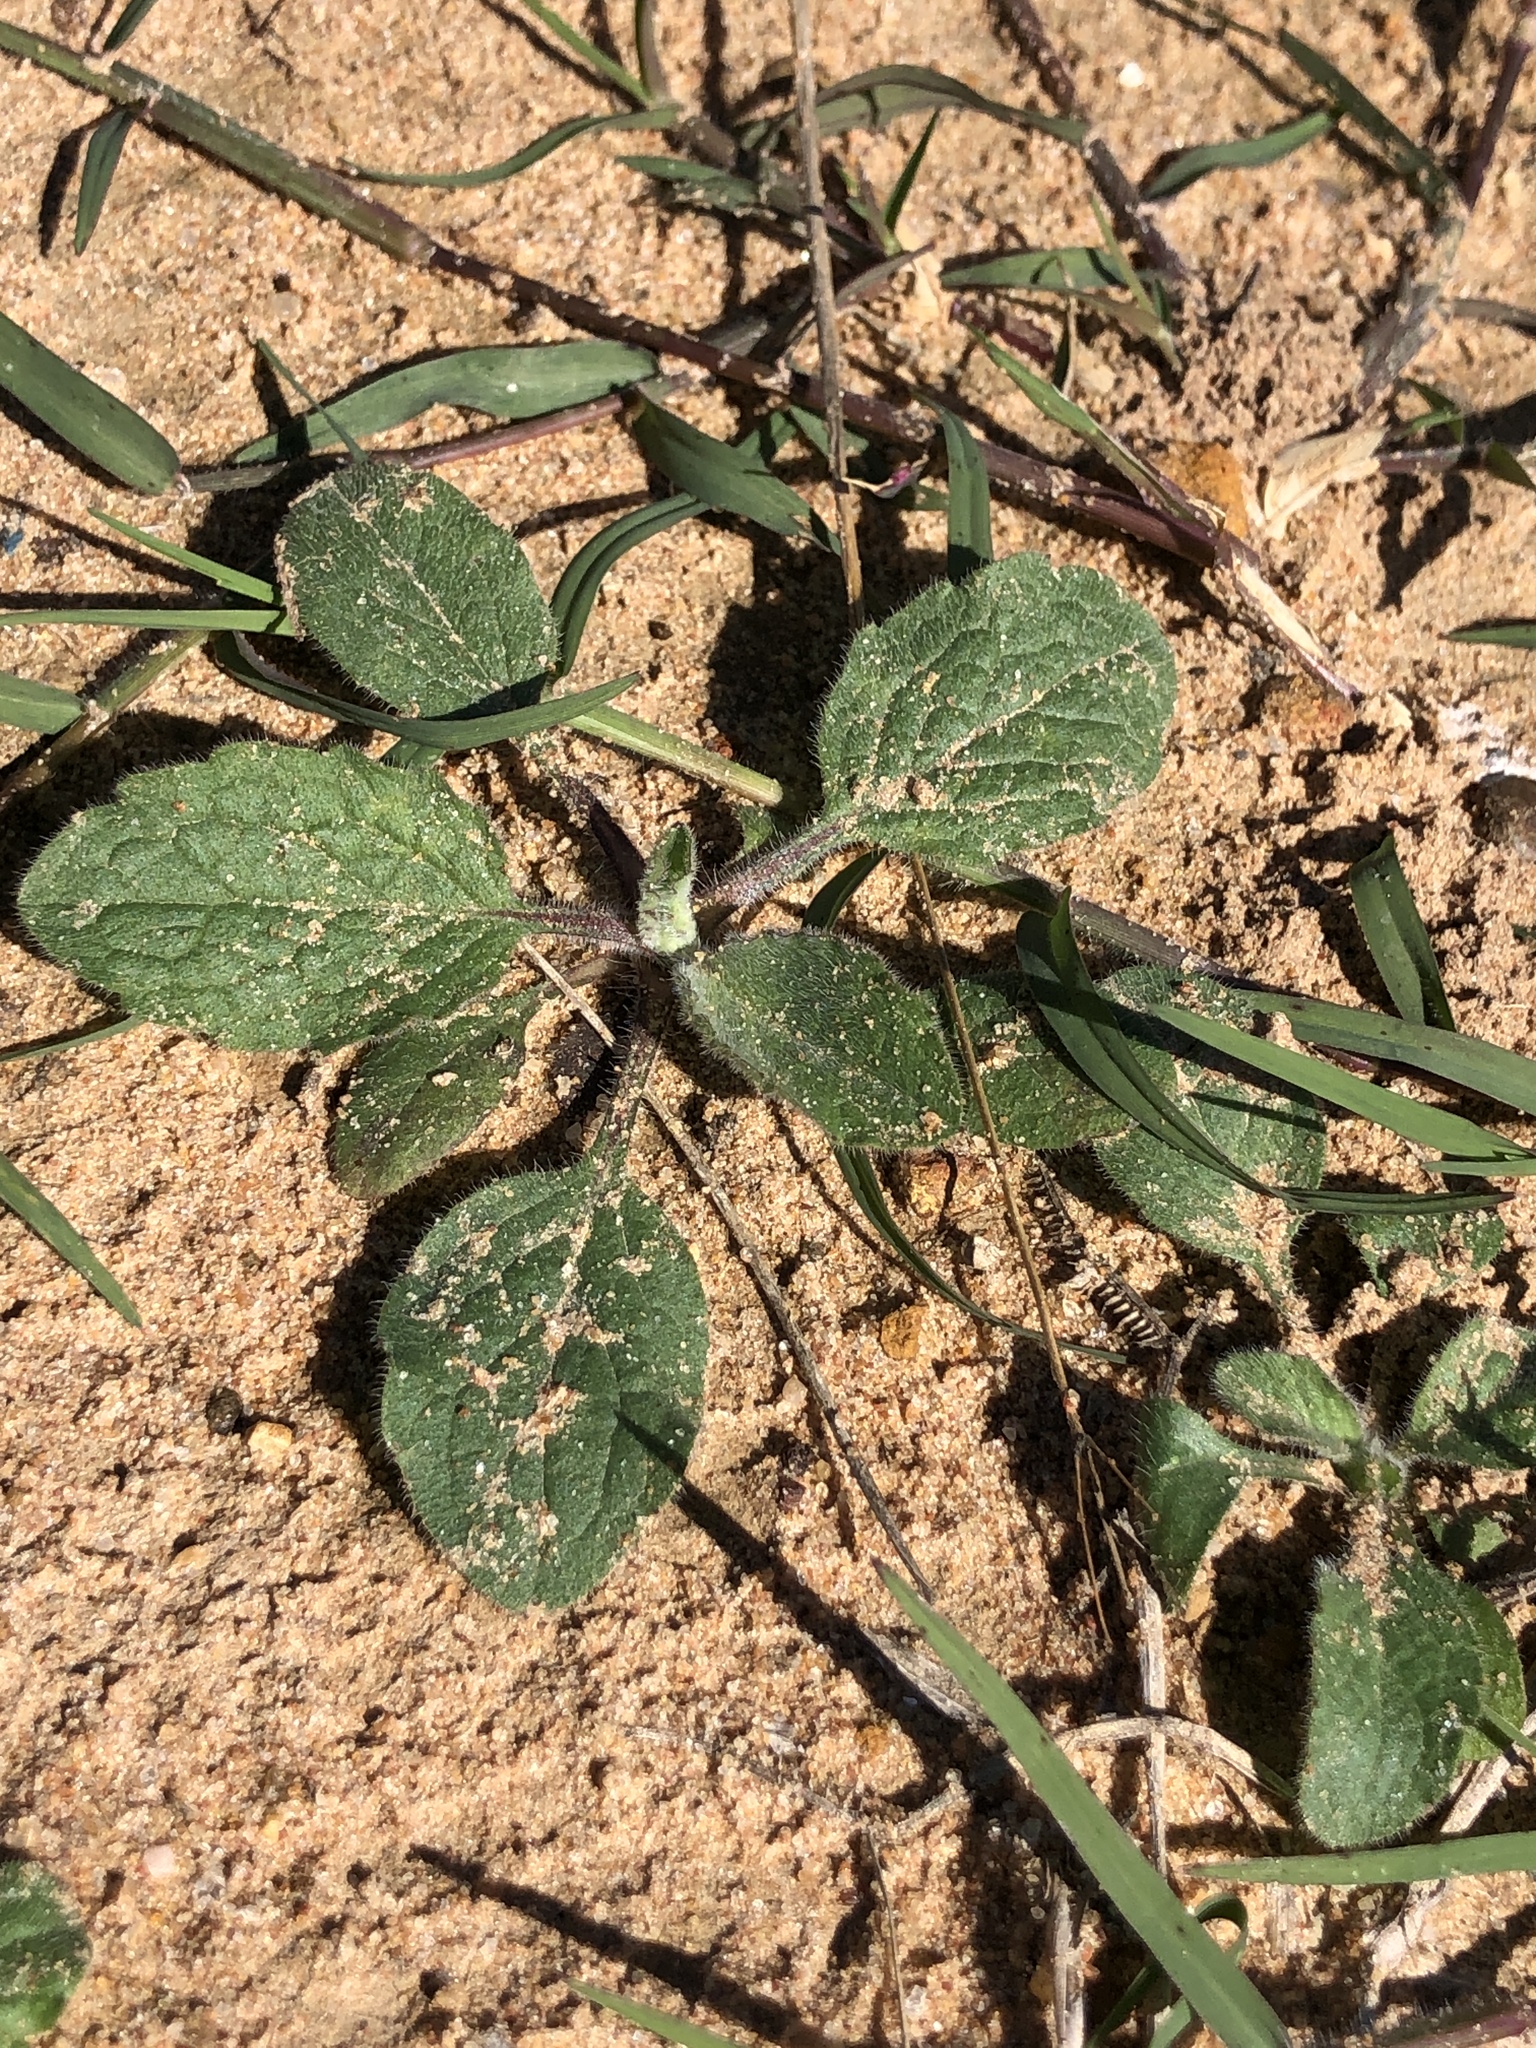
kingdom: Plantae
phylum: Tracheophyta
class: Magnoliopsida
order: Asterales
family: Asteraceae
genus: Heterotheca
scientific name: Heterotheca subaxillaris
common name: Camphorweed
